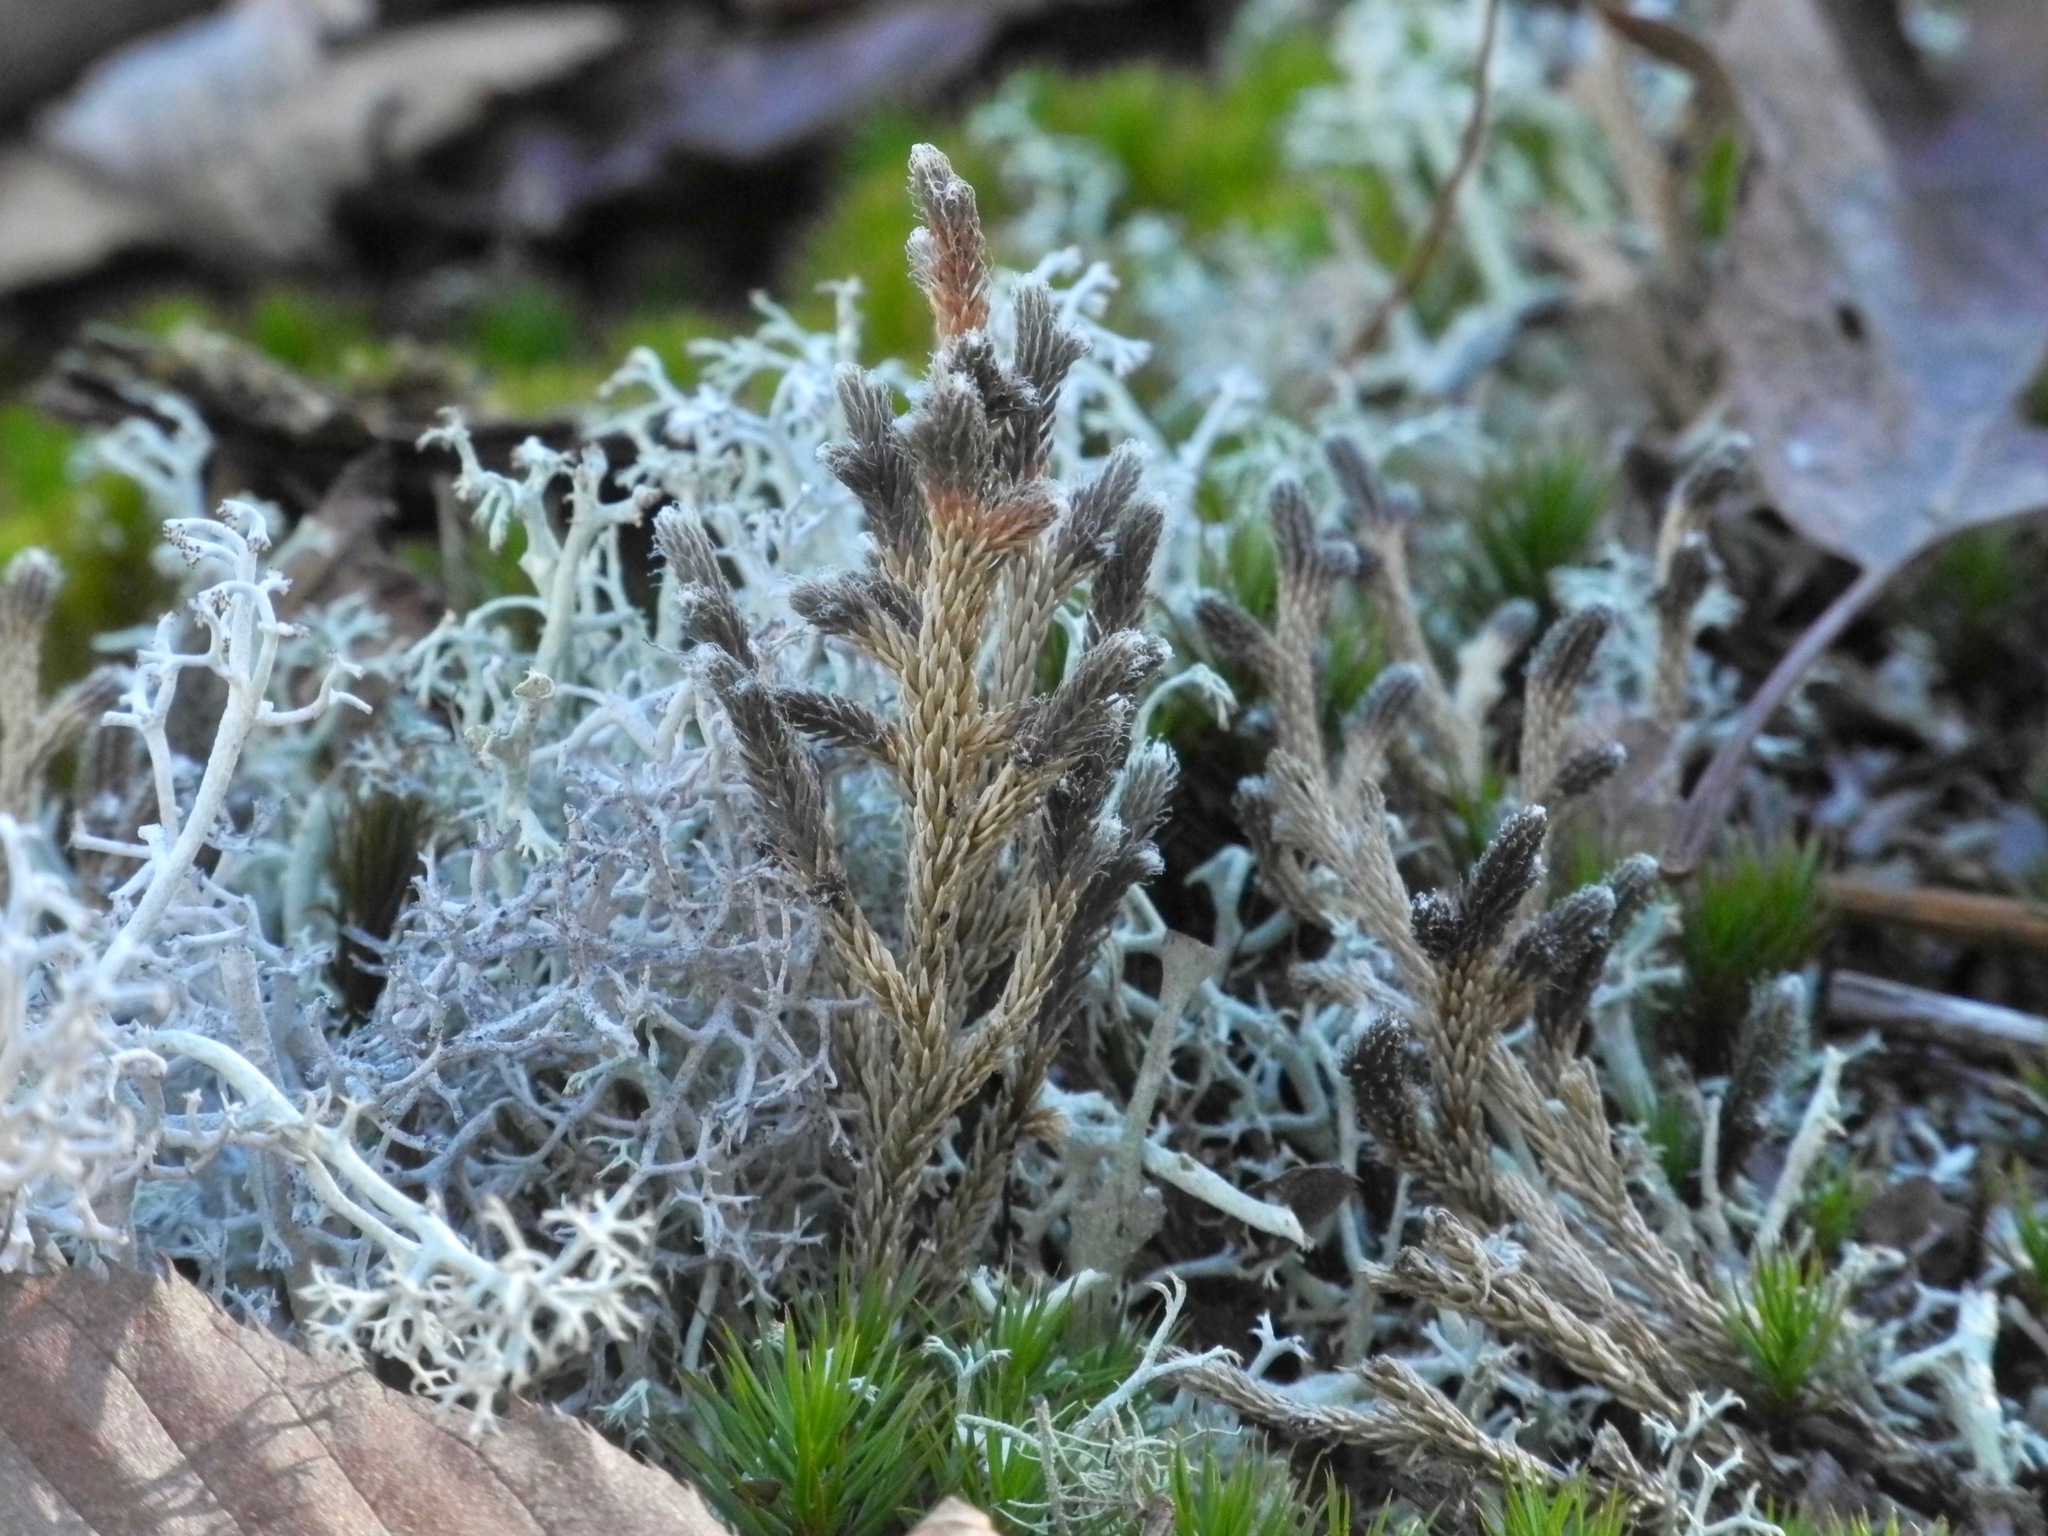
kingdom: Plantae
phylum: Tracheophyta
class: Lycopodiopsida
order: Selaginellales
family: Selaginellaceae
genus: Selaginella
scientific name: Selaginella tortipila
